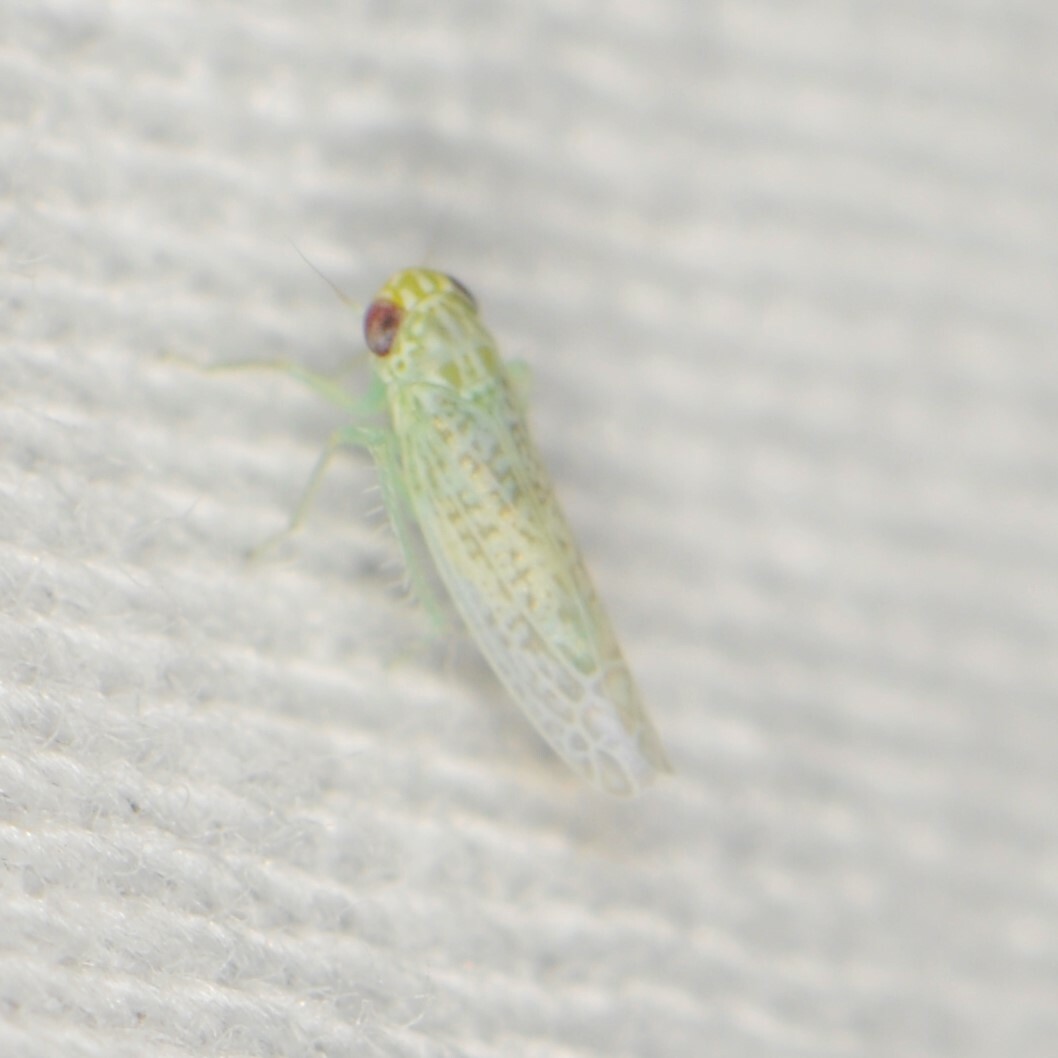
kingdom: Animalia
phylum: Arthropoda
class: Insecta
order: Hemiptera
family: Cicadellidae
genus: Hebata
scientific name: Hebata
